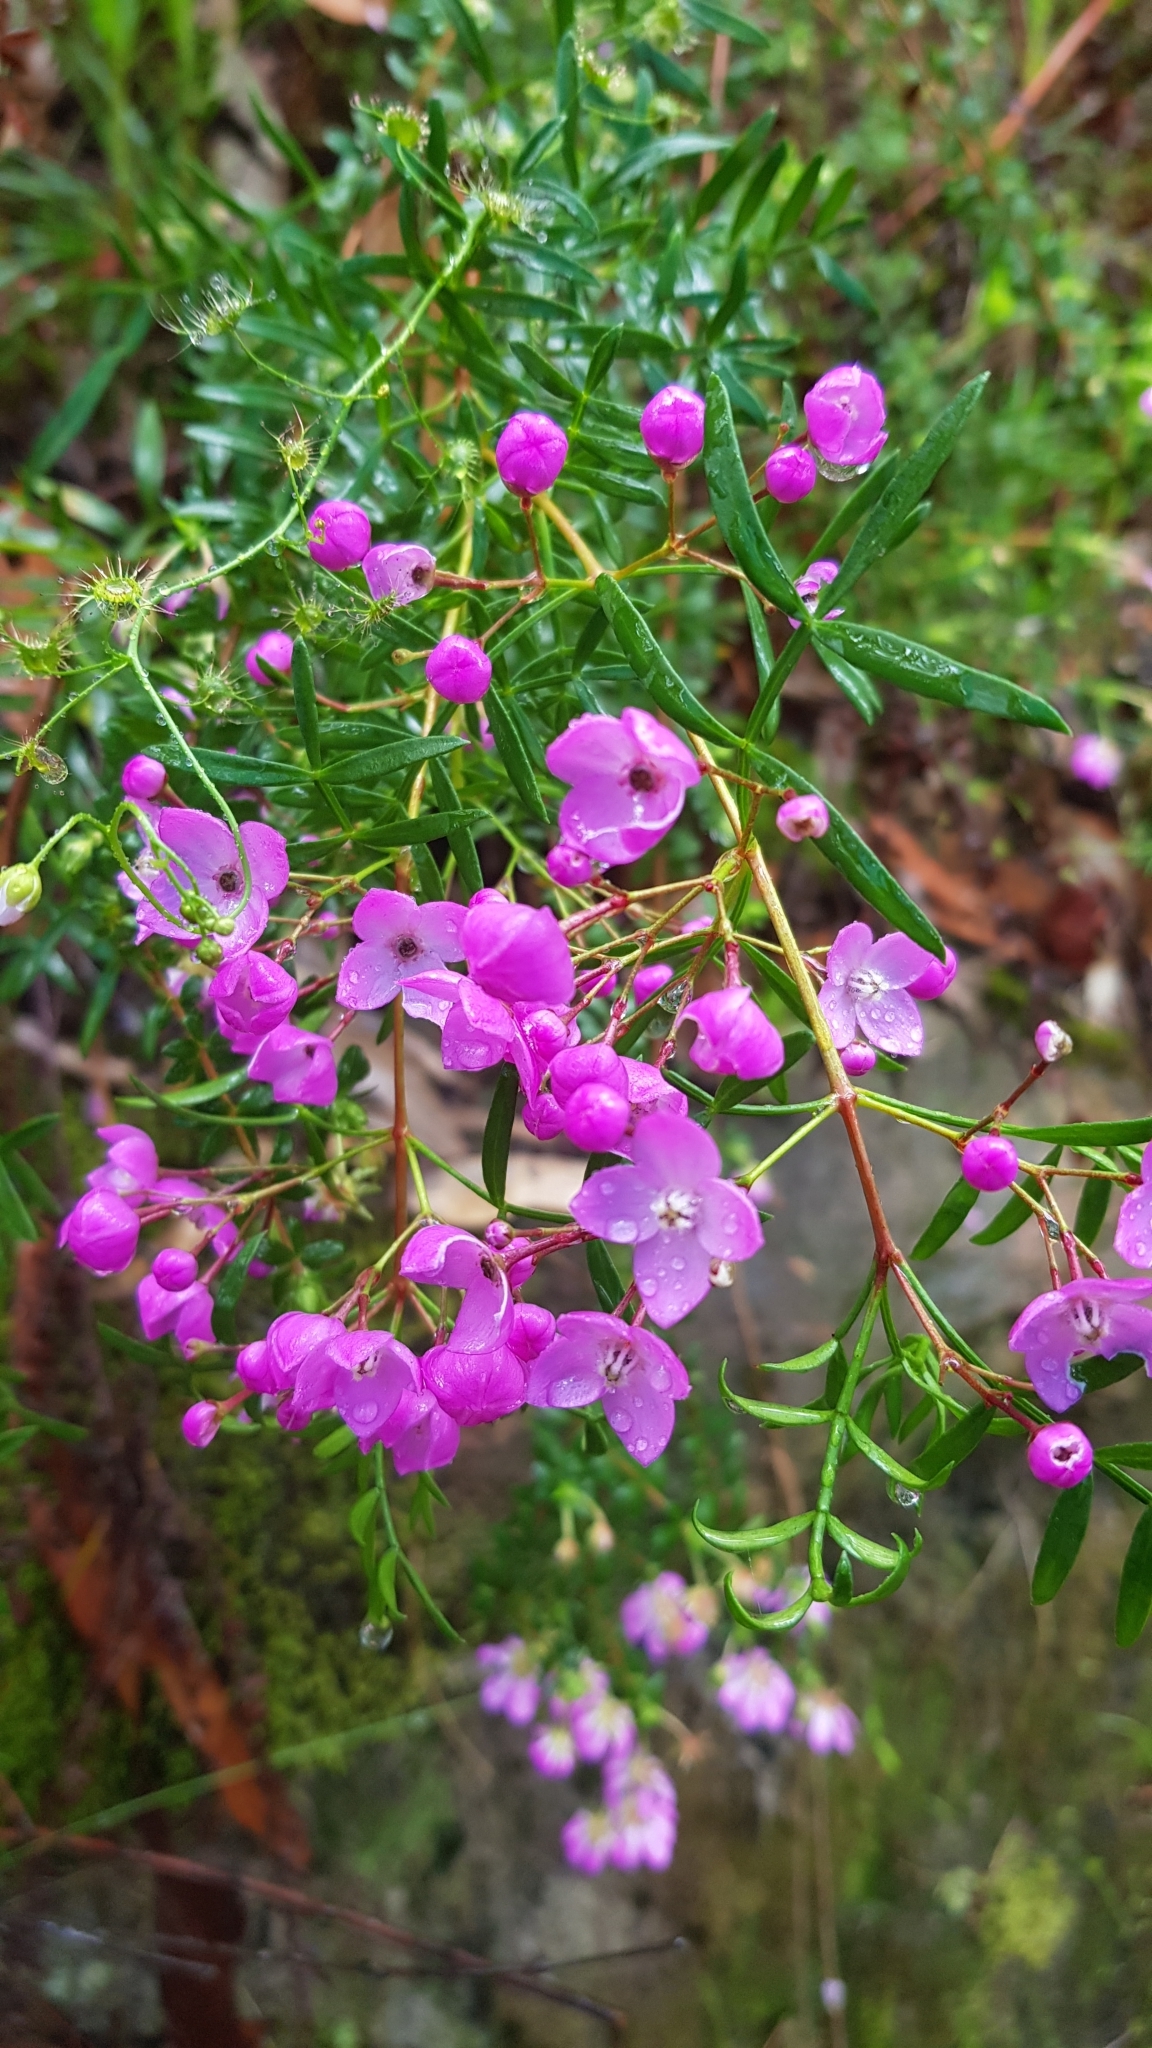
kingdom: Plantae
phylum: Tracheophyta
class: Magnoliopsida
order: Sapindales
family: Rutaceae
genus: Boronia
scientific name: Boronia pinnata
